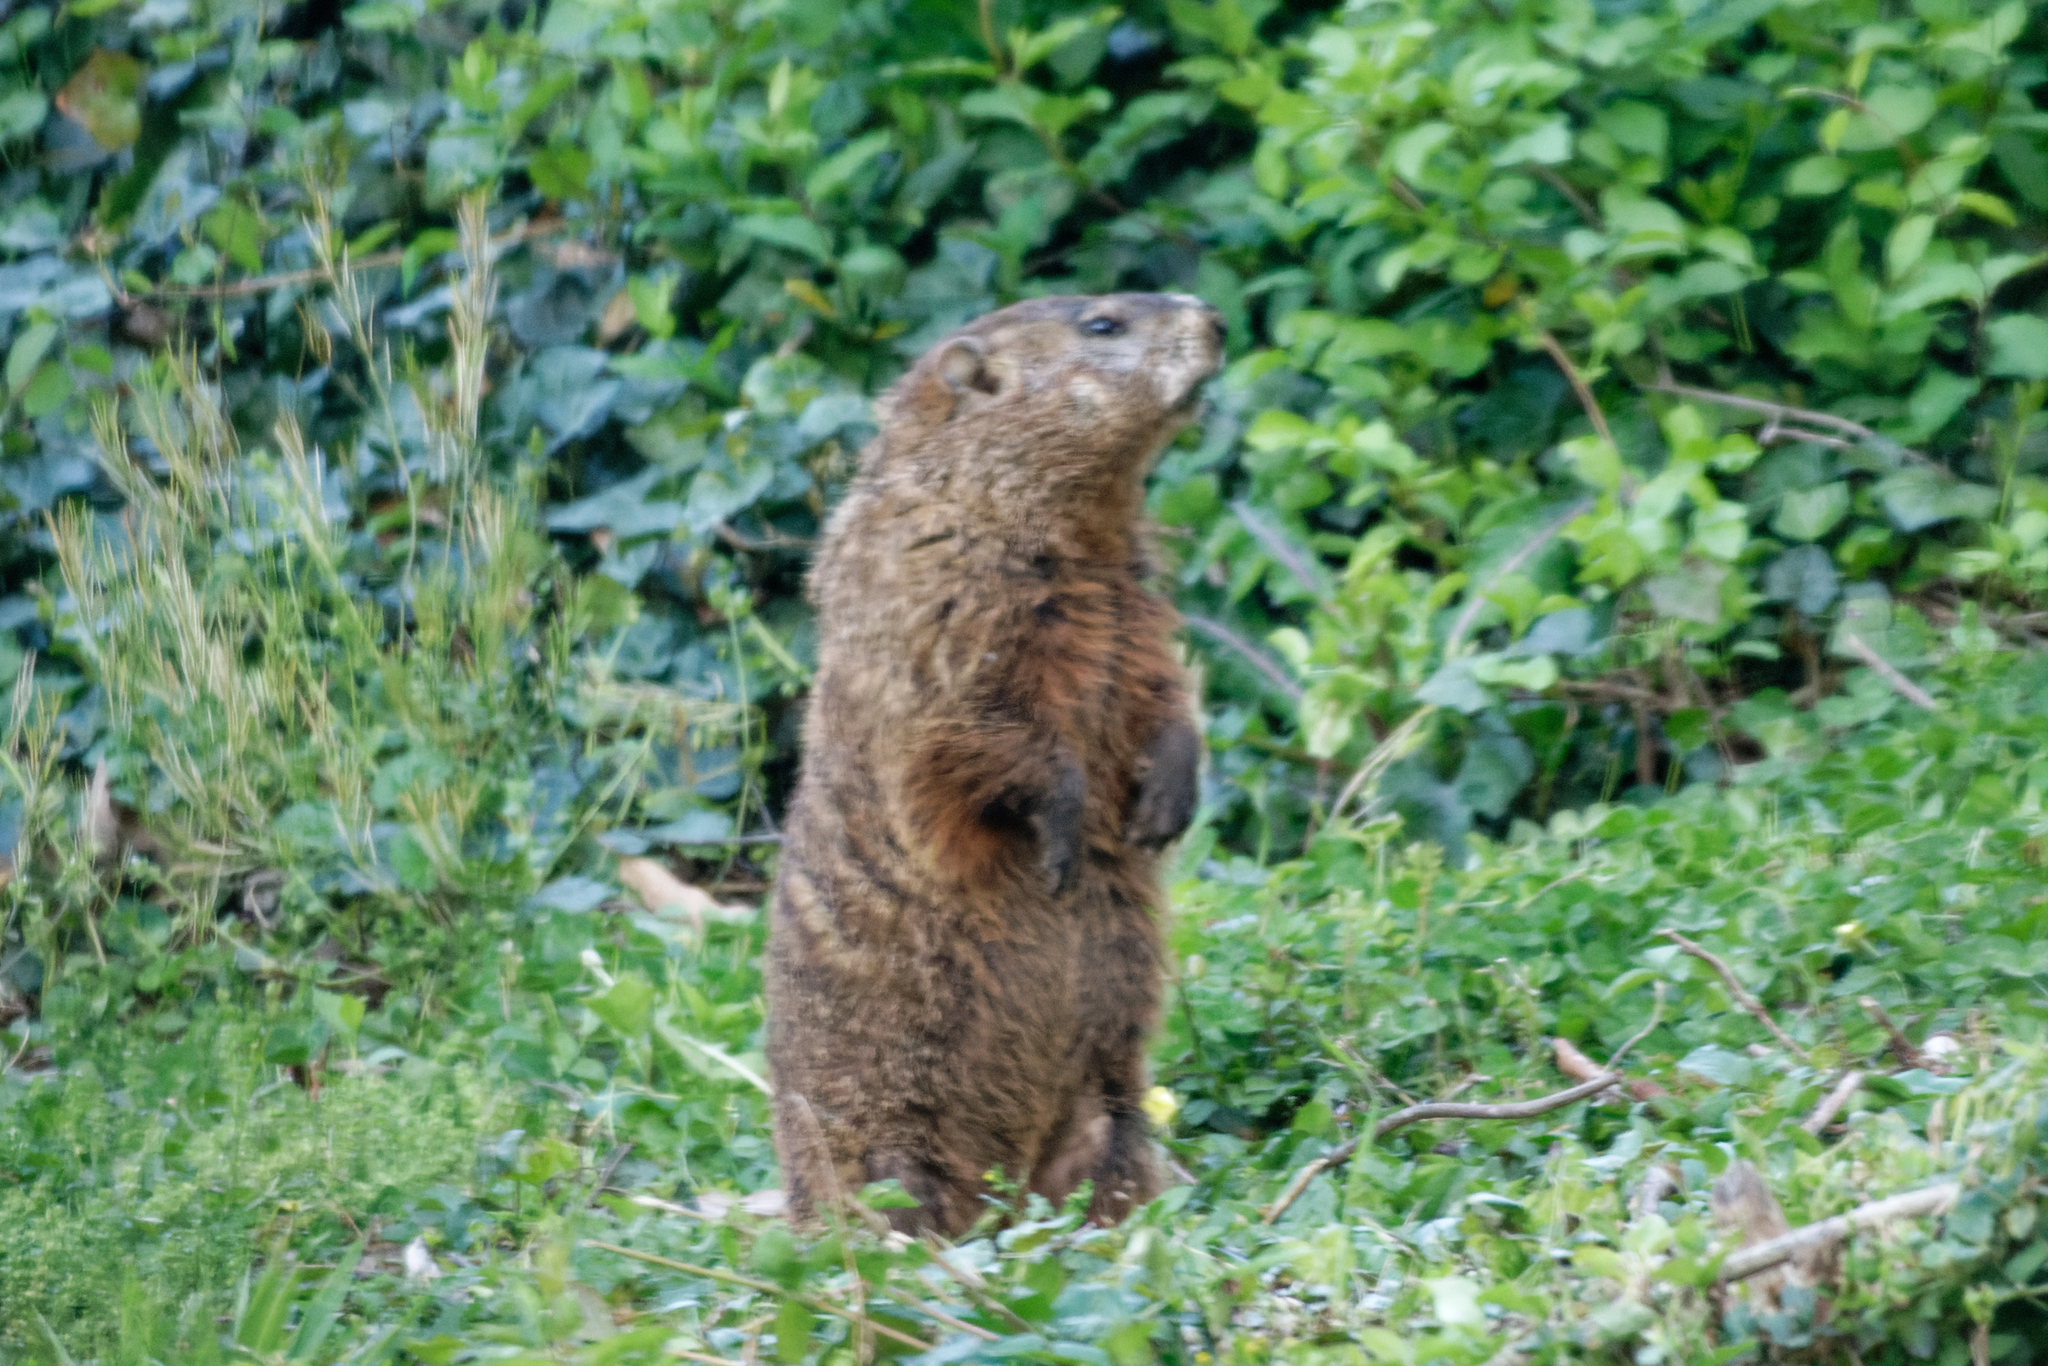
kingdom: Animalia
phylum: Chordata
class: Mammalia
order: Rodentia
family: Sciuridae
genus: Marmota
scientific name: Marmota monax
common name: Groundhog
